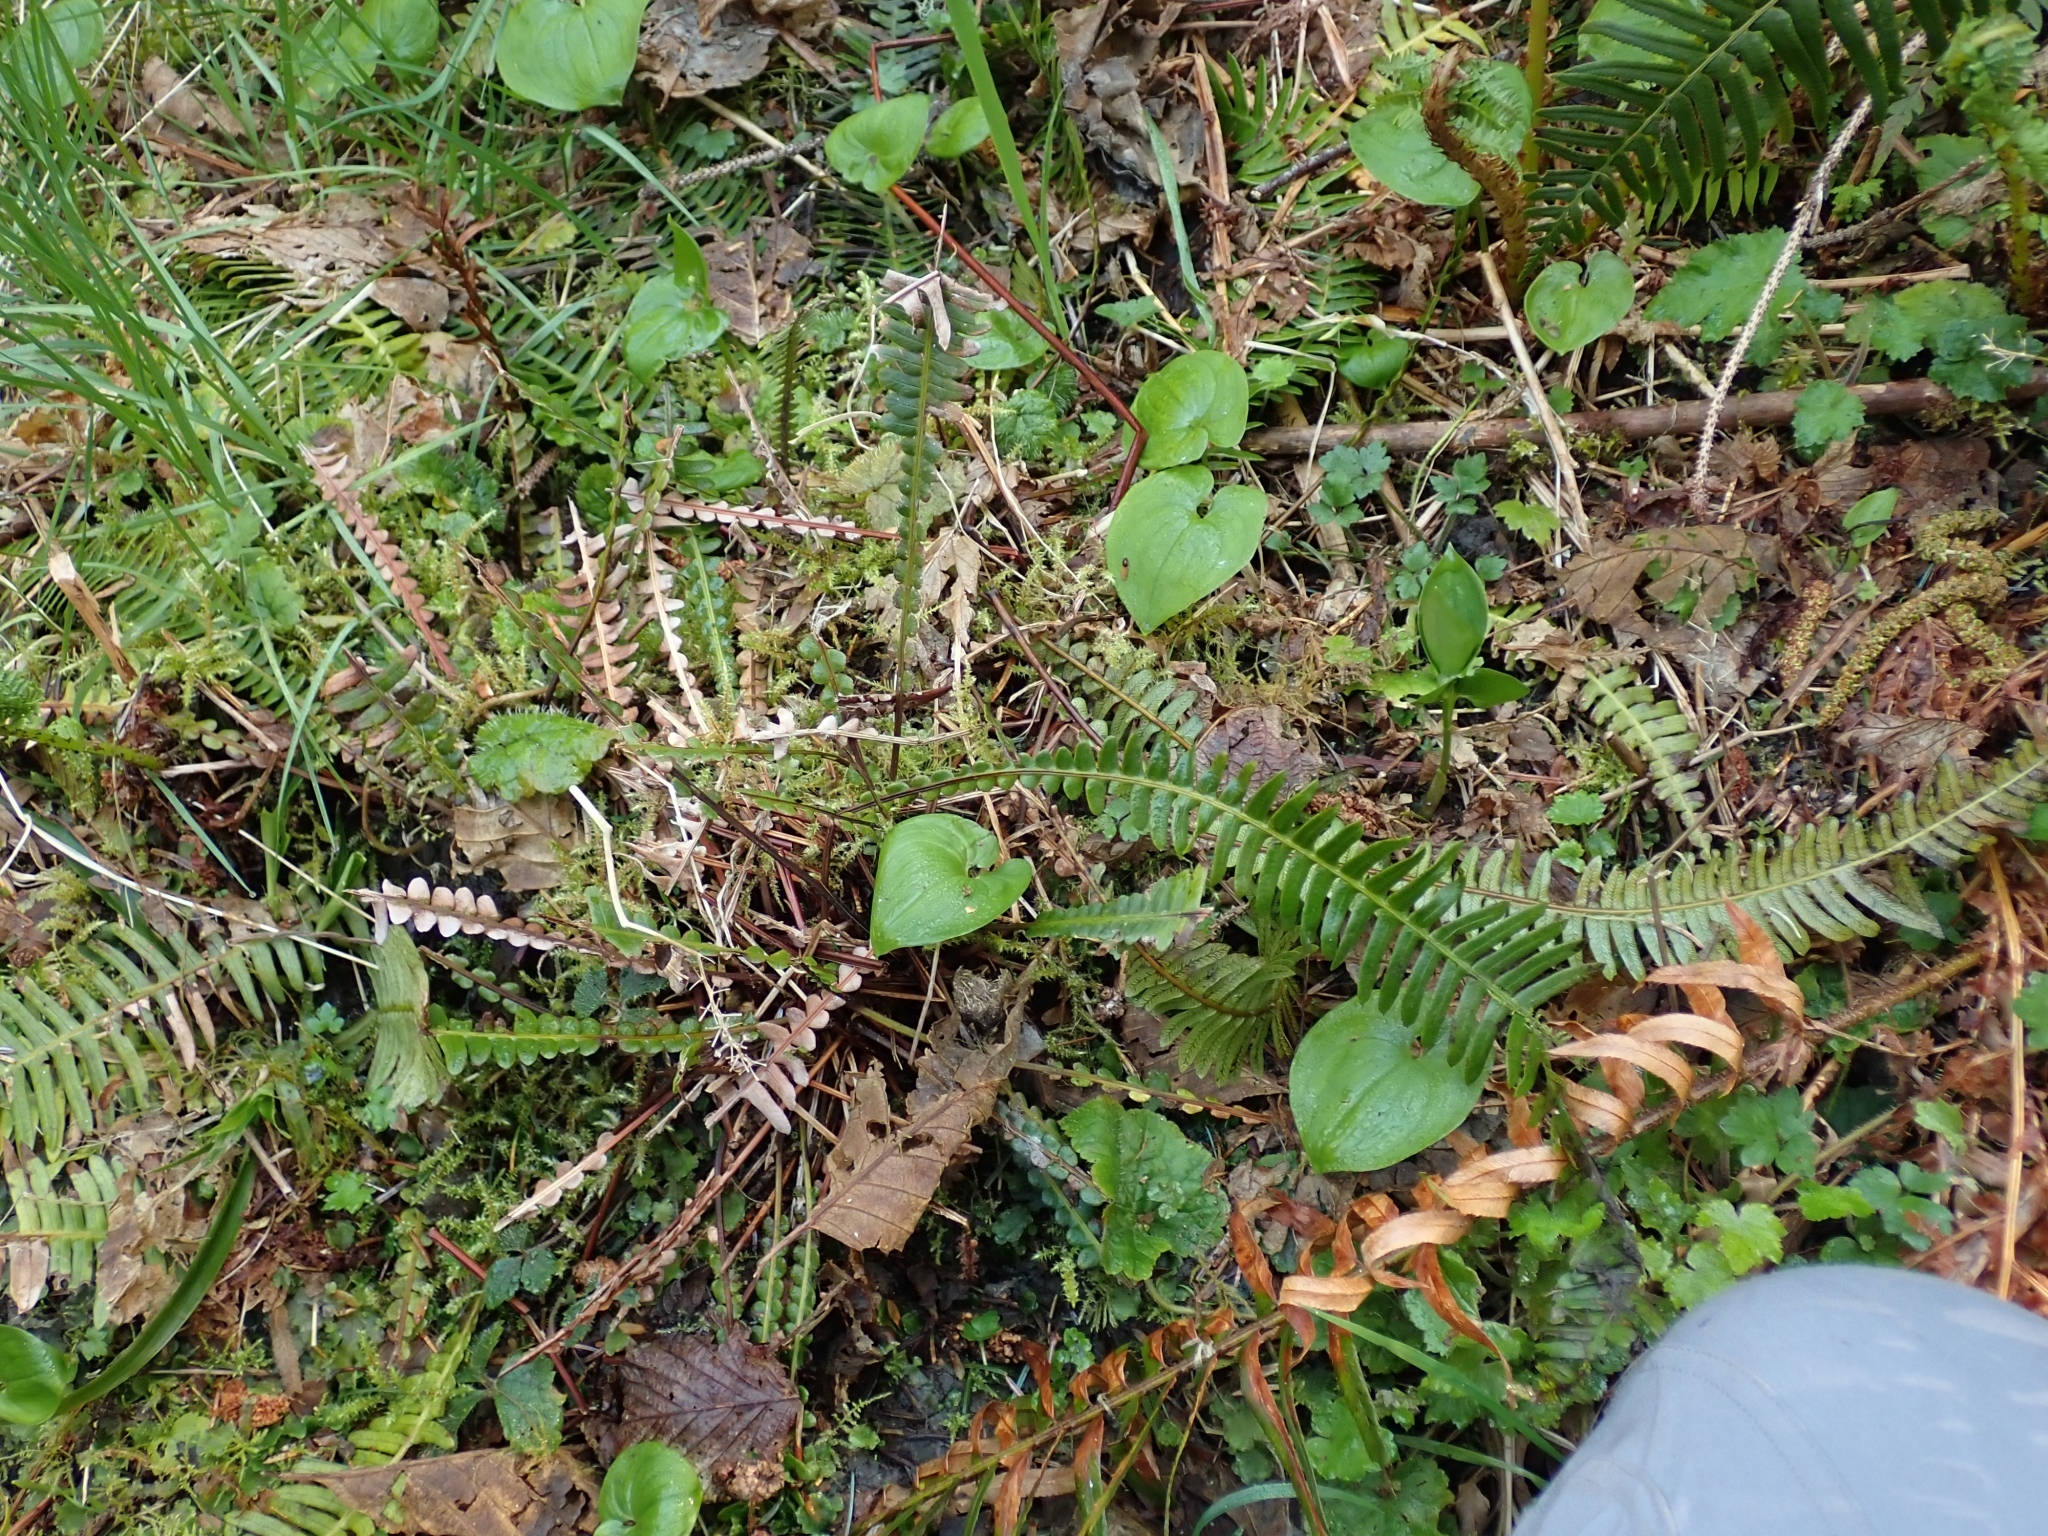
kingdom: Plantae
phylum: Tracheophyta
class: Polypodiopsida
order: Polypodiales
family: Blechnaceae
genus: Struthiopteris
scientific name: Struthiopteris spicant
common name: Deer fern
